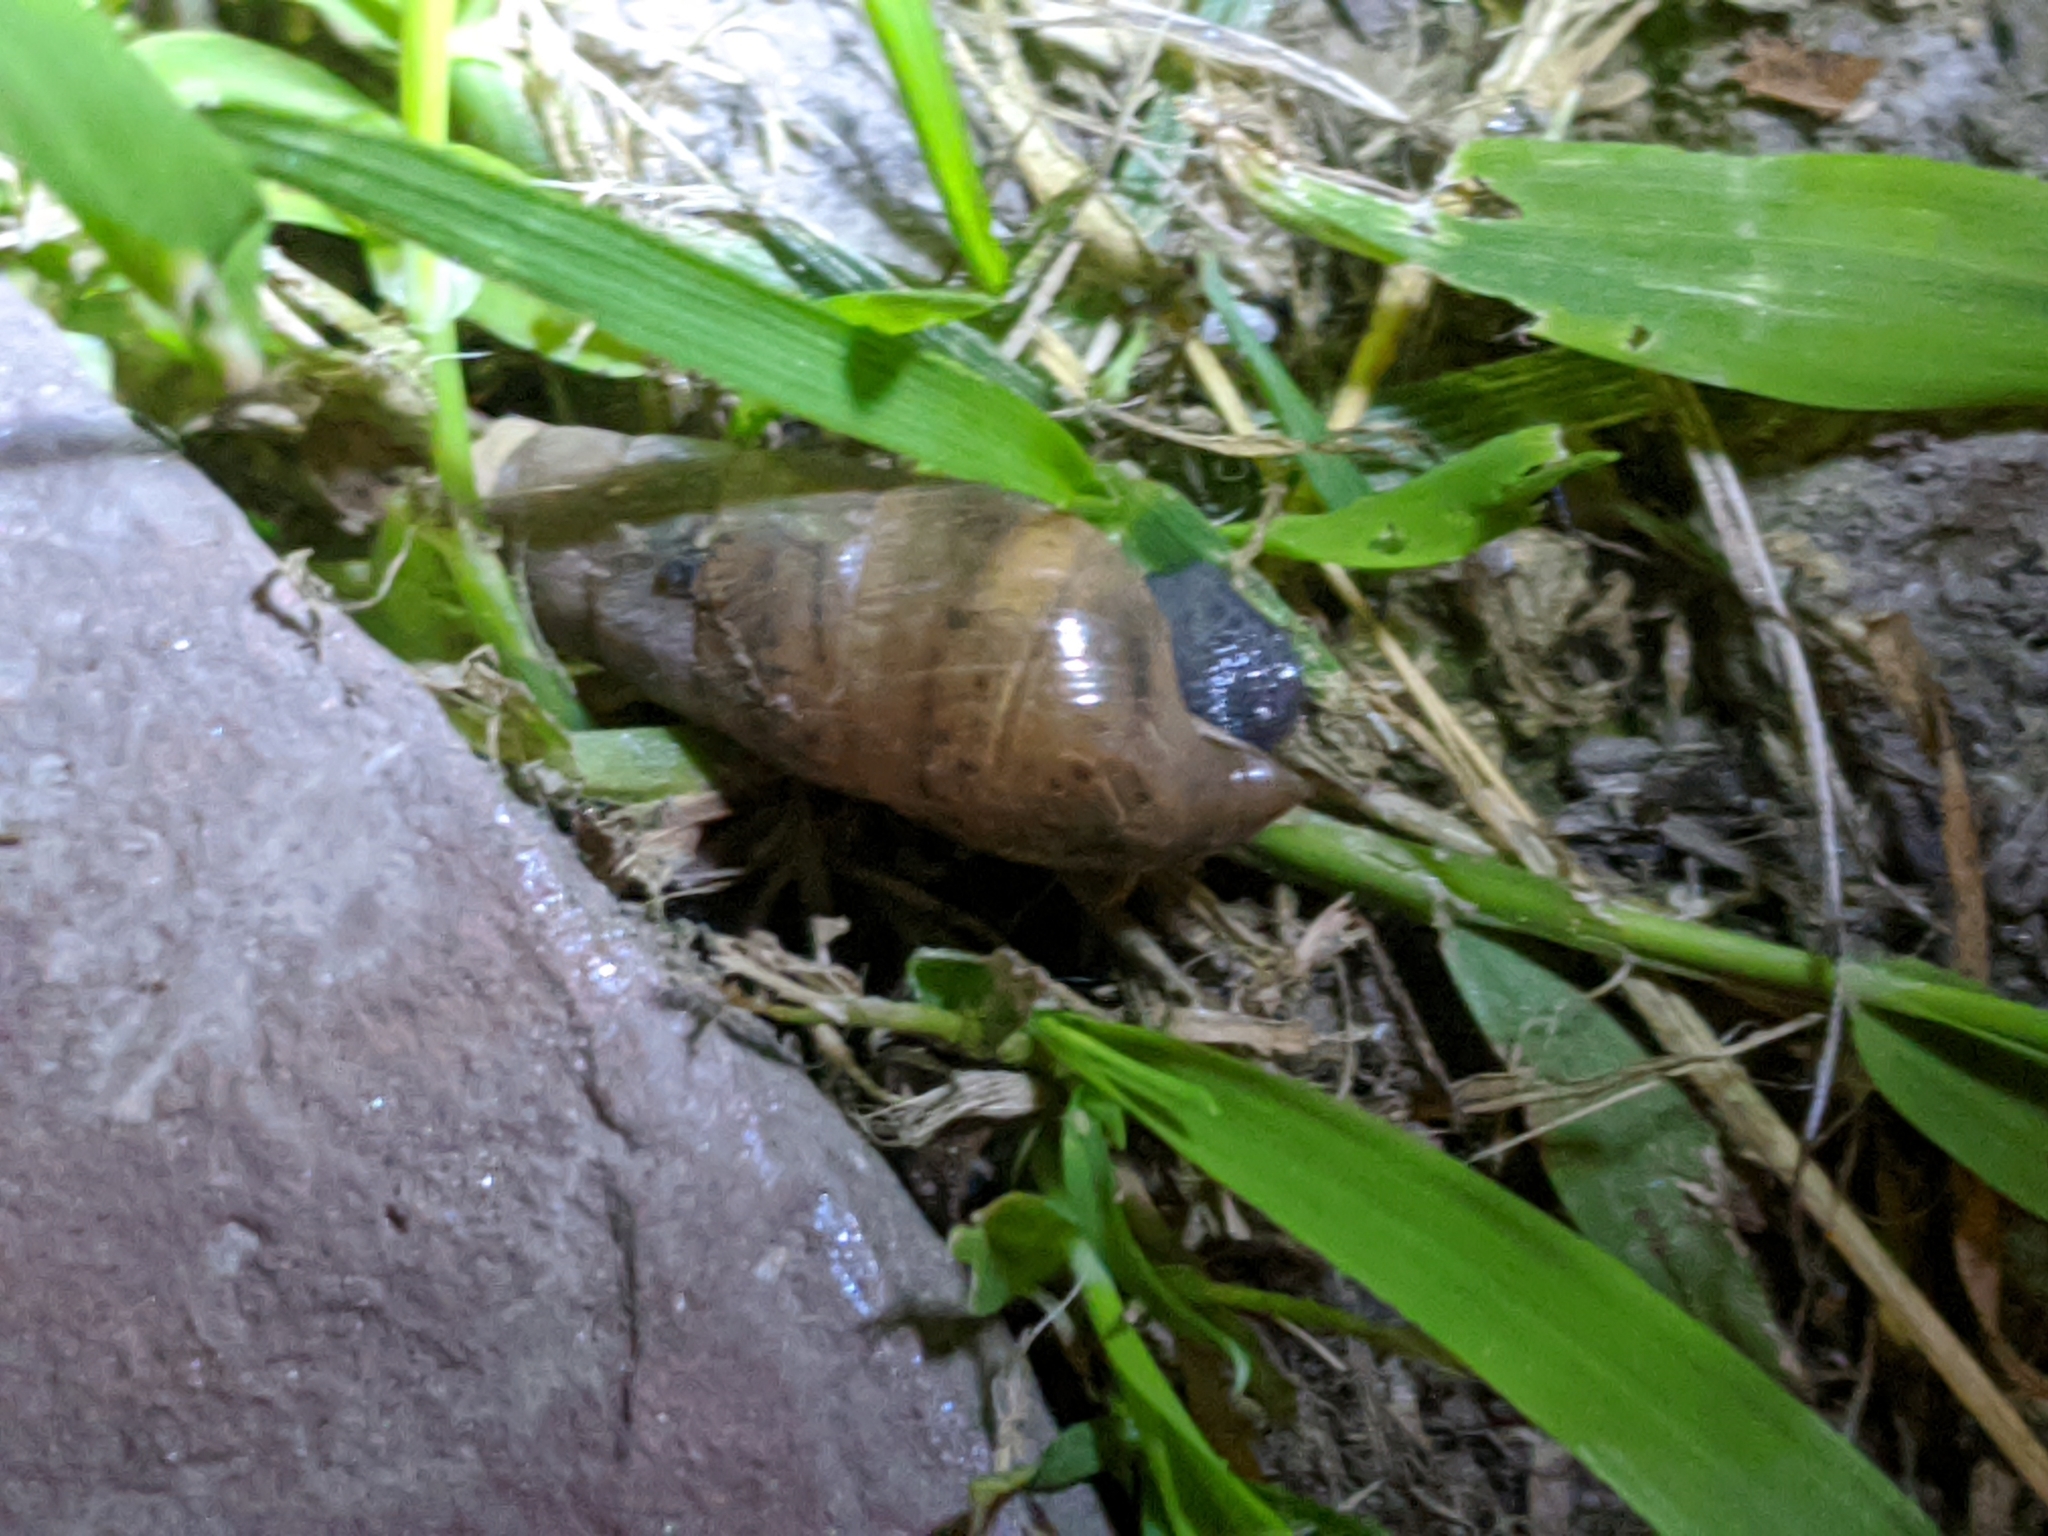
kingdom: Animalia
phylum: Mollusca
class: Gastropoda
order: Stylommatophora
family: Achatinidae
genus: Rumina
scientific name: Rumina decollata
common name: Decollate snail
